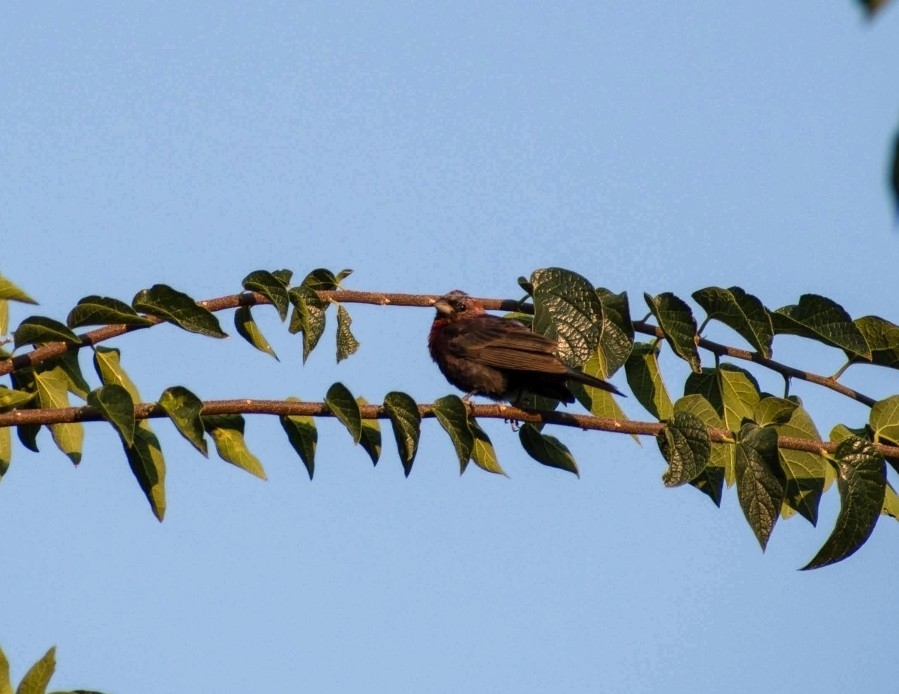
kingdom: Animalia
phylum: Chordata
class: Aves
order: Passeriformes
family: Cardinalidae
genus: Passerina
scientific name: Passerina versicolor
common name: Varied bunting
